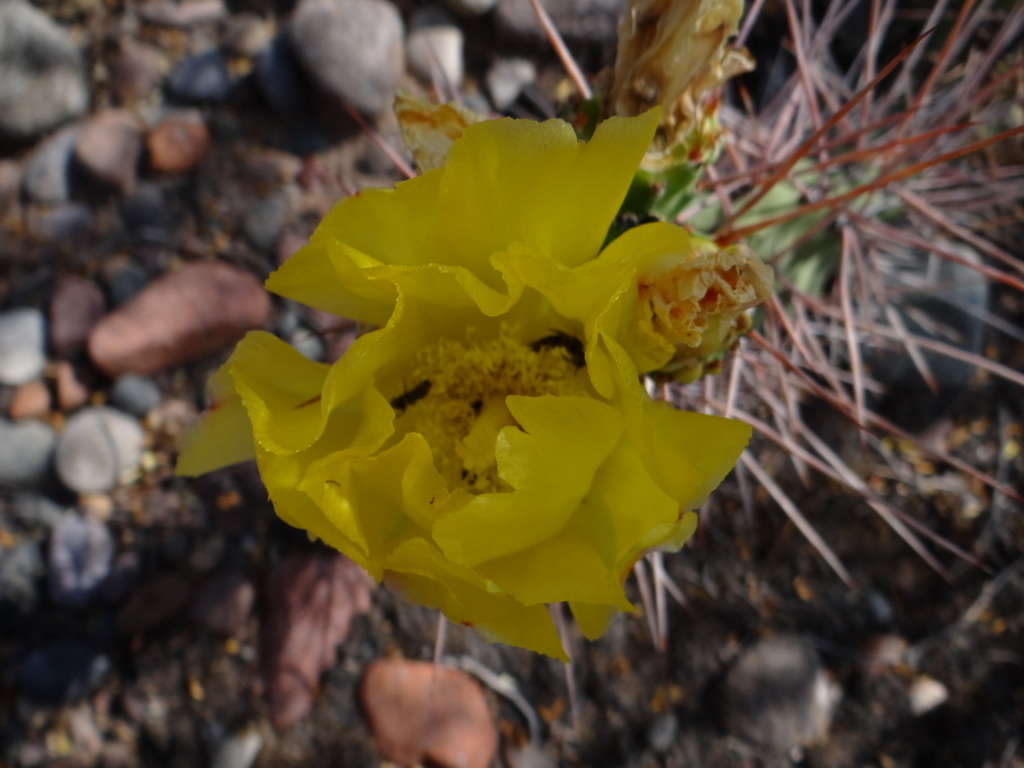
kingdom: Plantae
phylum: Tracheophyta
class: Magnoliopsida
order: Caryophyllales
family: Cactaceae
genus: Opuntia
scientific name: Opuntia sulphurea
